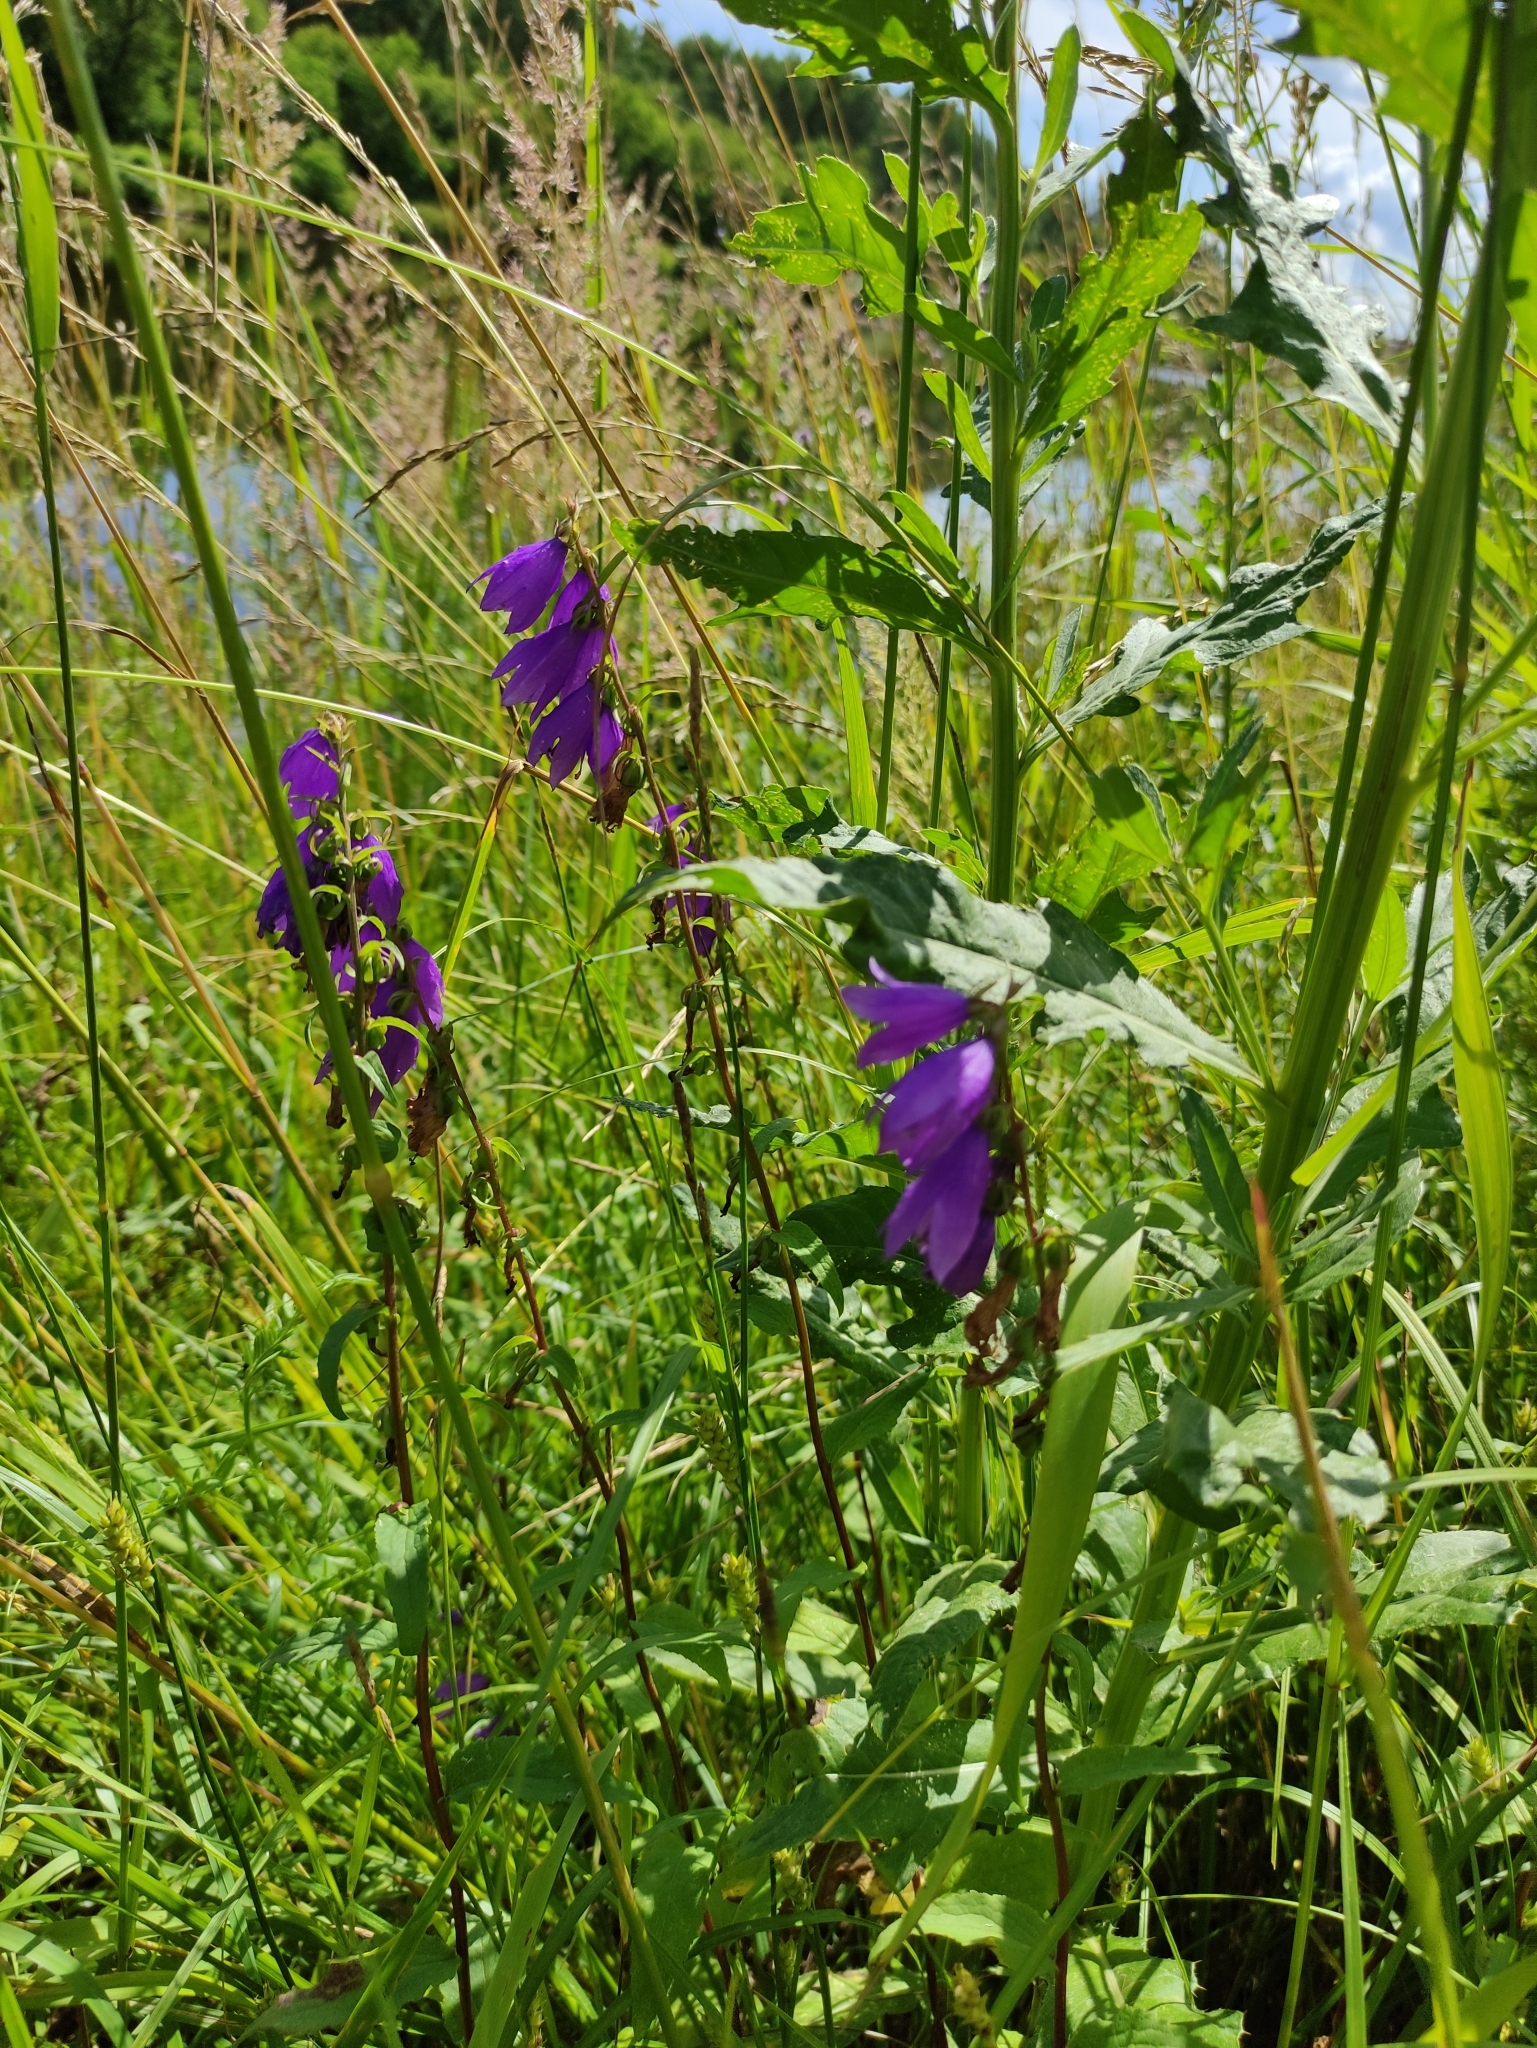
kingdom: Plantae
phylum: Tracheophyta
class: Magnoliopsida
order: Asterales
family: Campanulaceae
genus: Campanula
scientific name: Campanula rapunculoides
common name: Creeping bellflower
